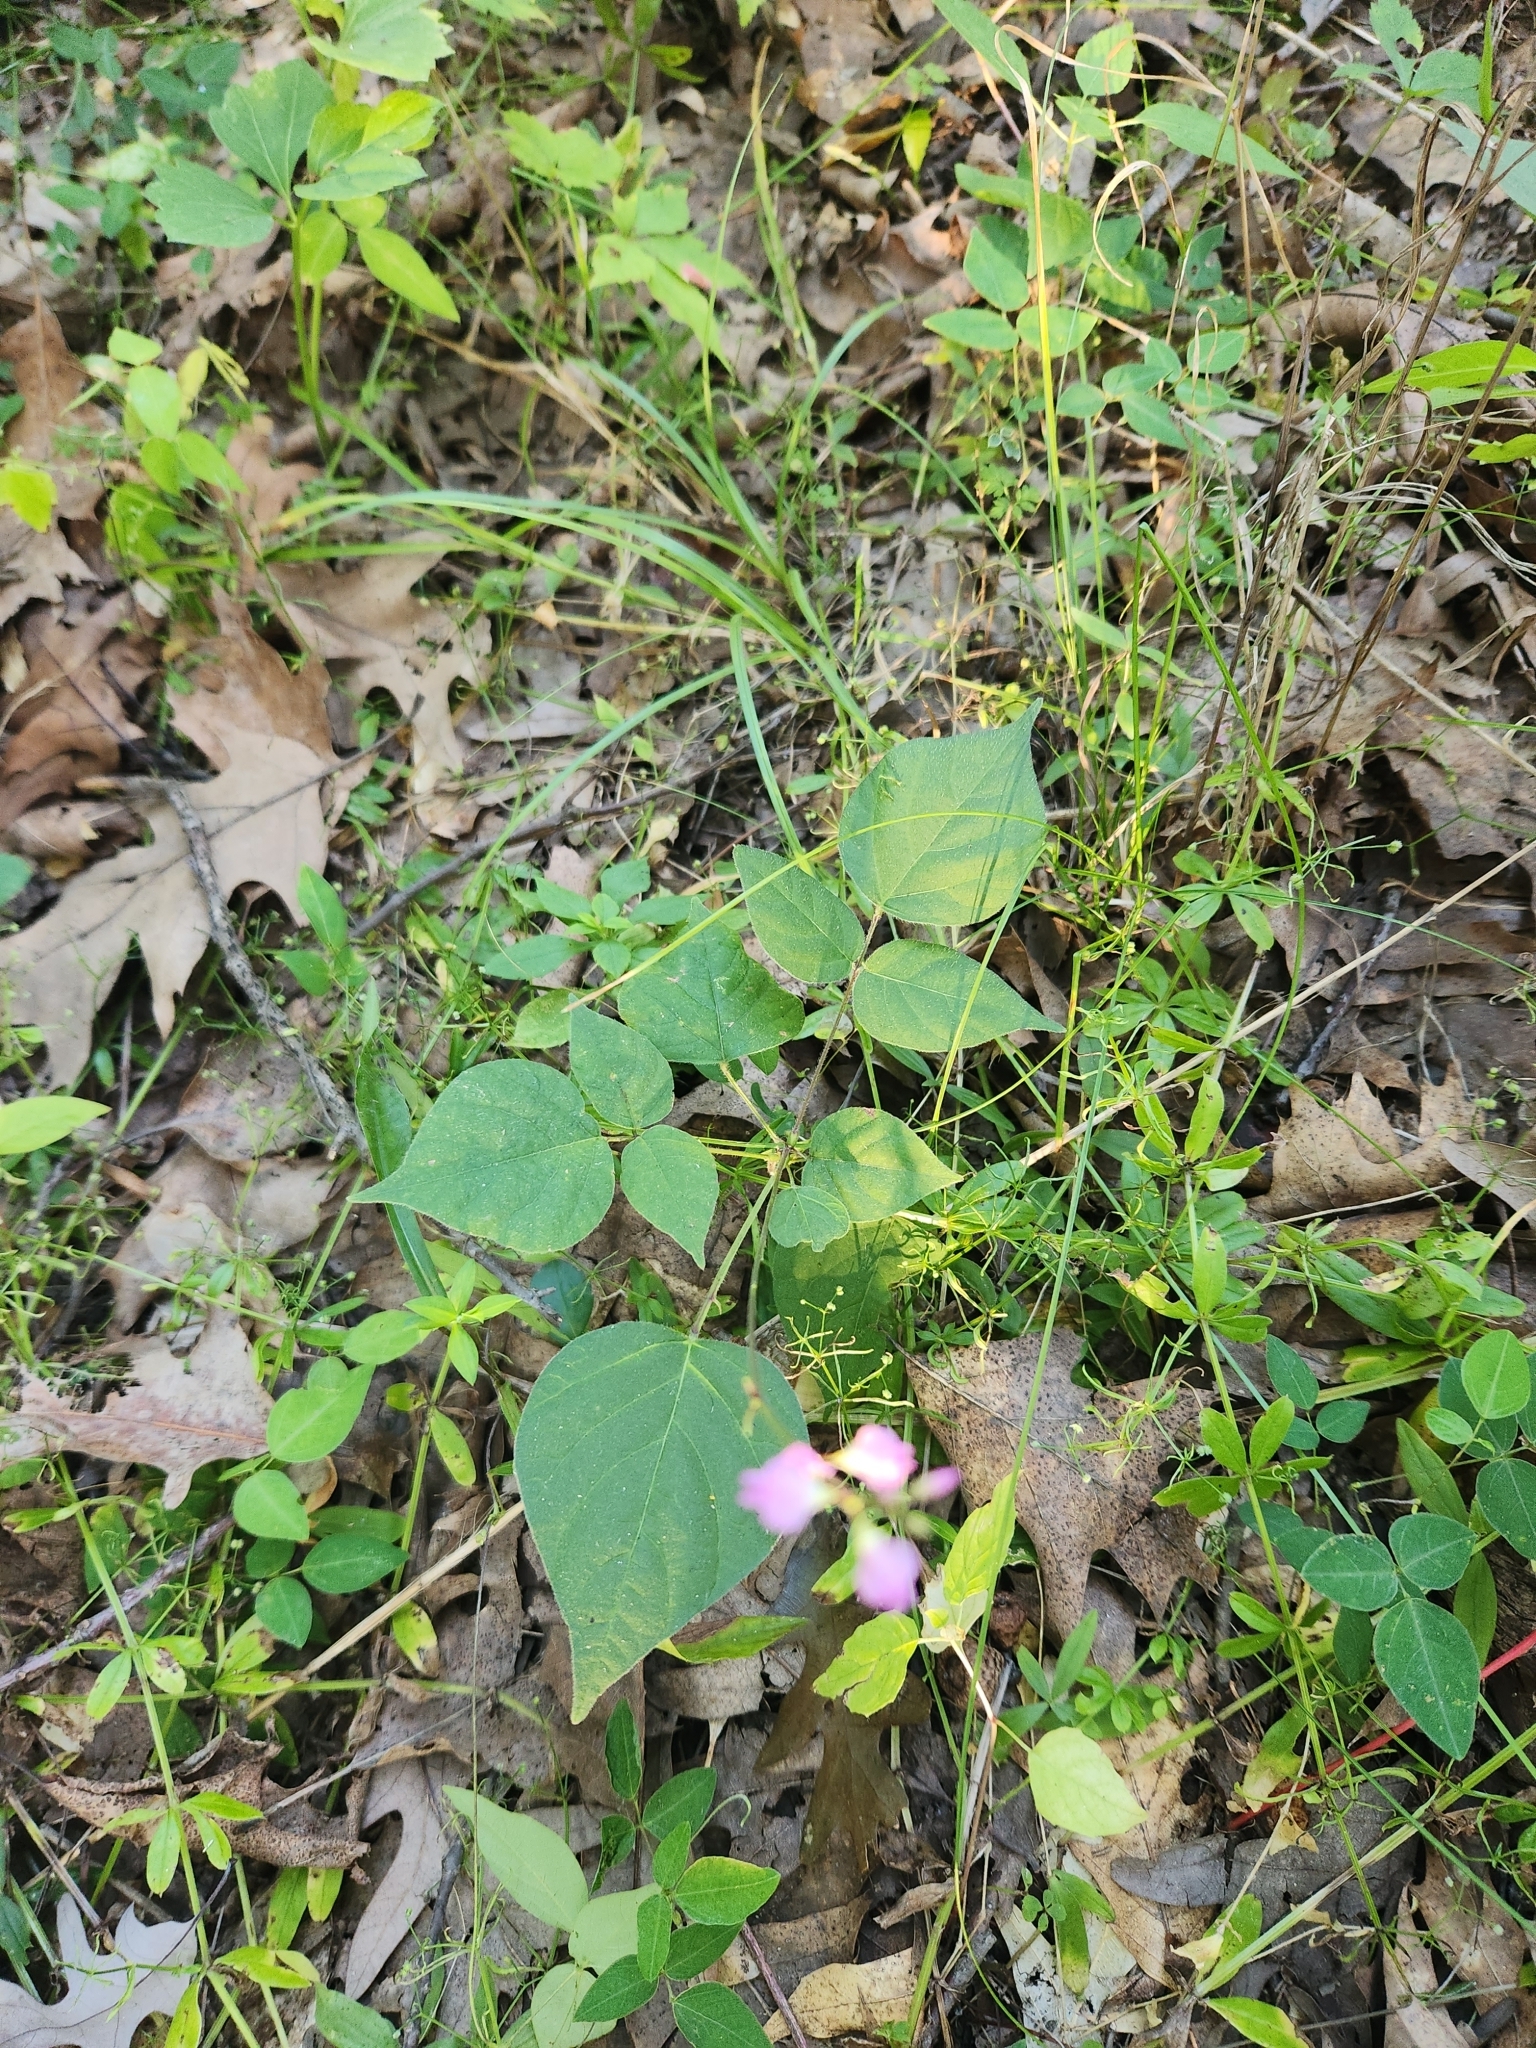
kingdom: Plantae
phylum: Tracheophyta
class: Magnoliopsida
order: Fabales
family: Fabaceae
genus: Hylodesmum
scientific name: Hylodesmum glutinosum
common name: Clustered-leaved tick-trefoil
